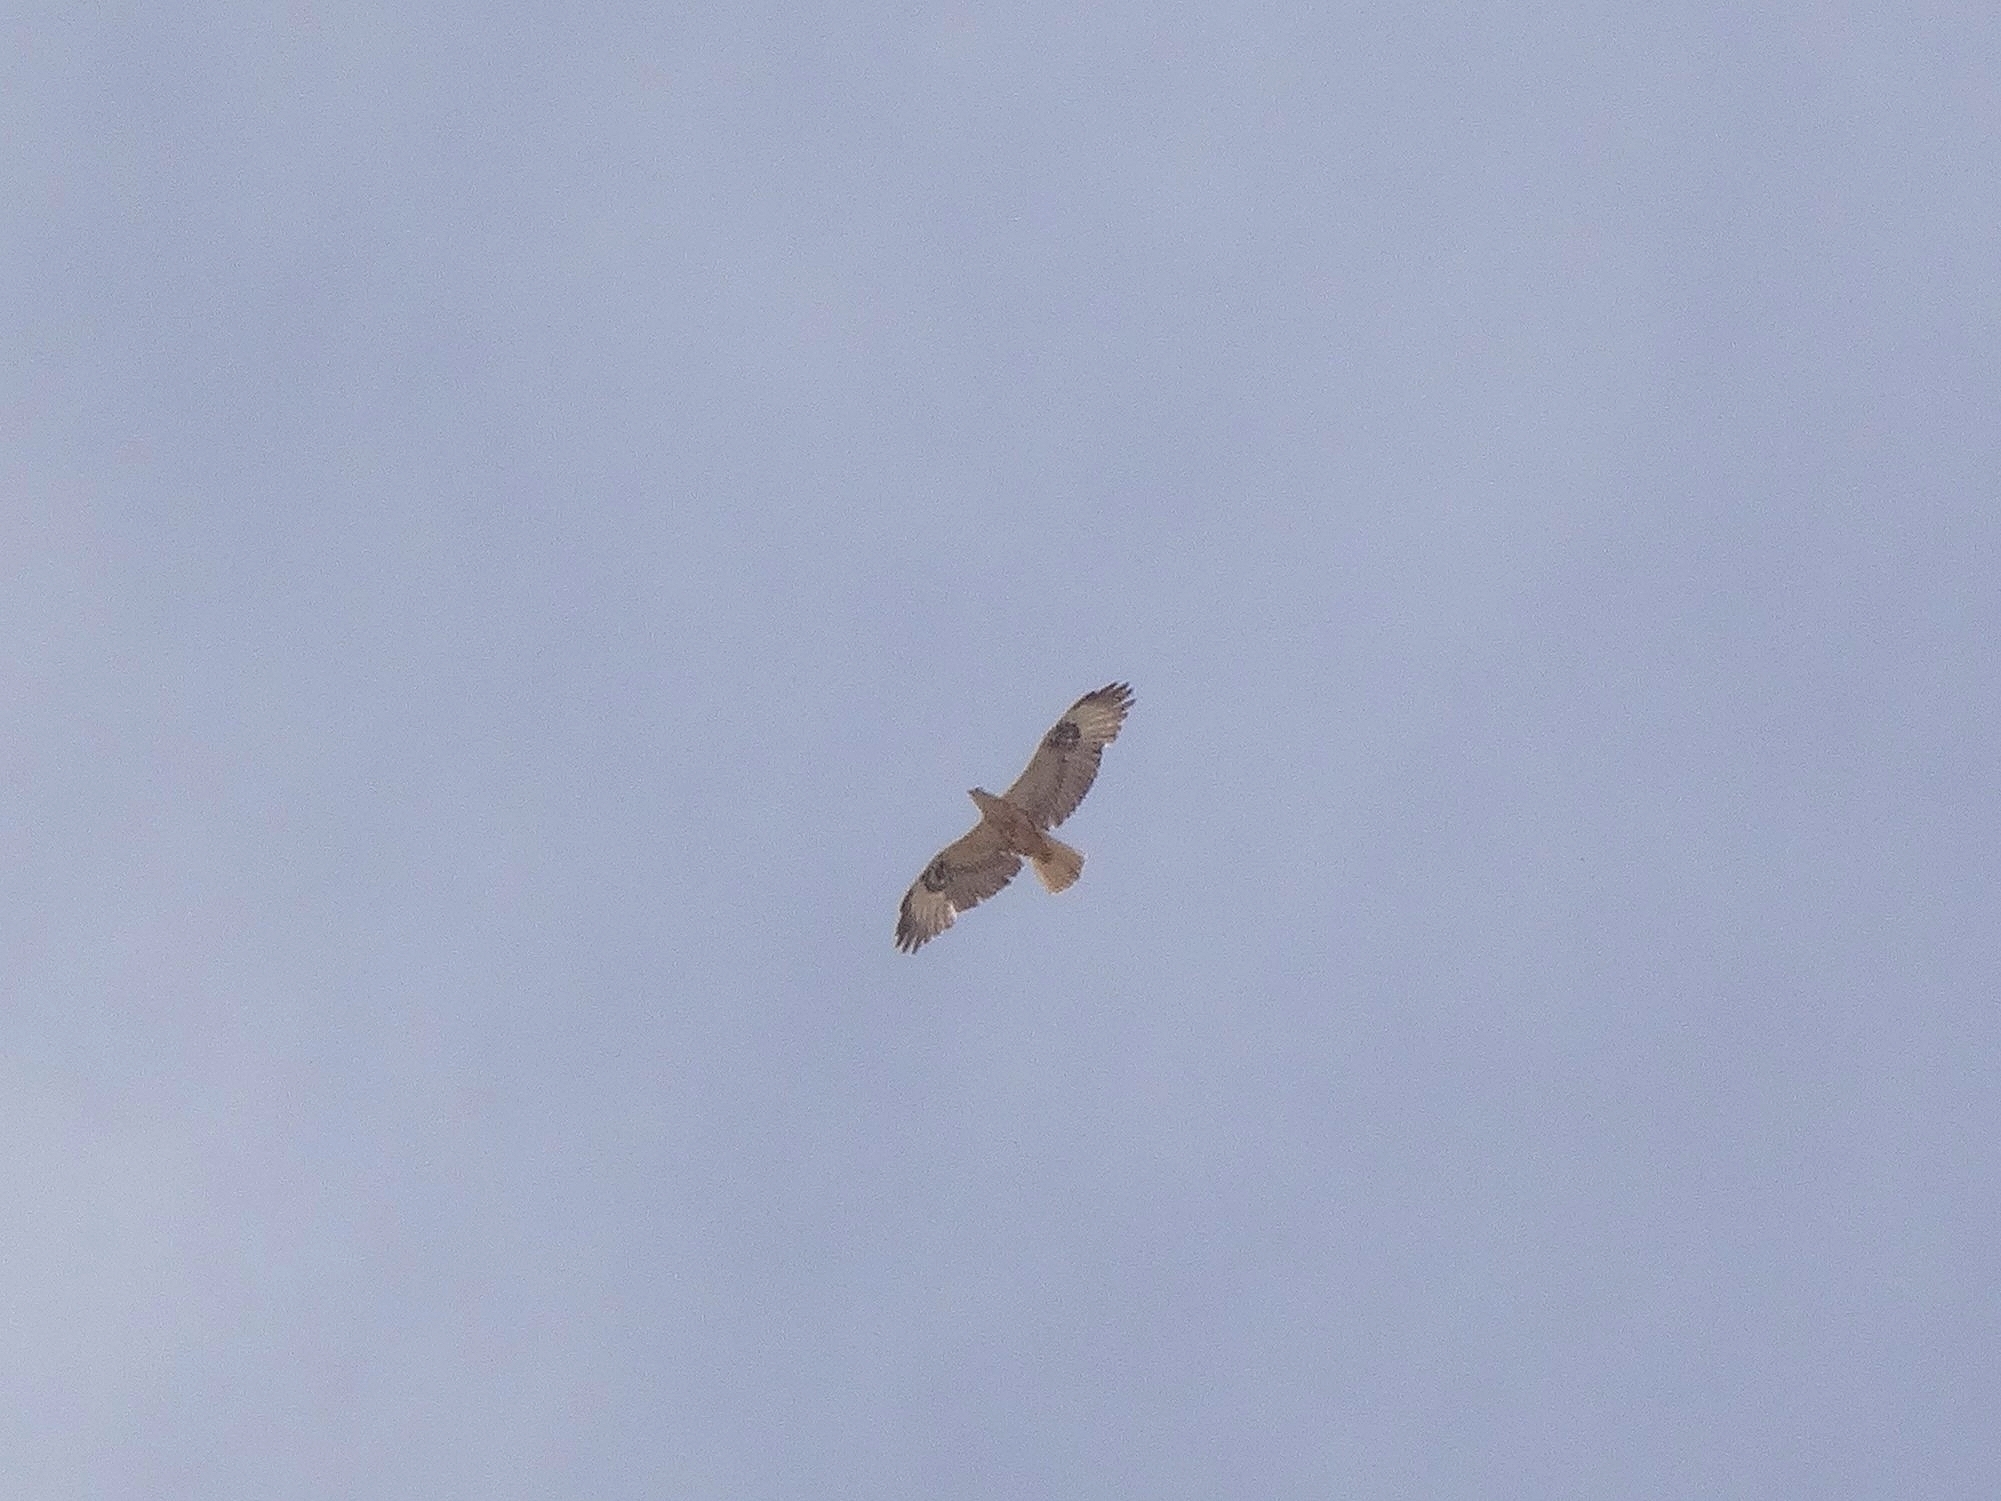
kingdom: Animalia
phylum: Chordata
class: Aves
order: Accipitriformes
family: Accipitridae
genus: Buteo
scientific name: Buteo rufinus
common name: Long-legged buzzard
